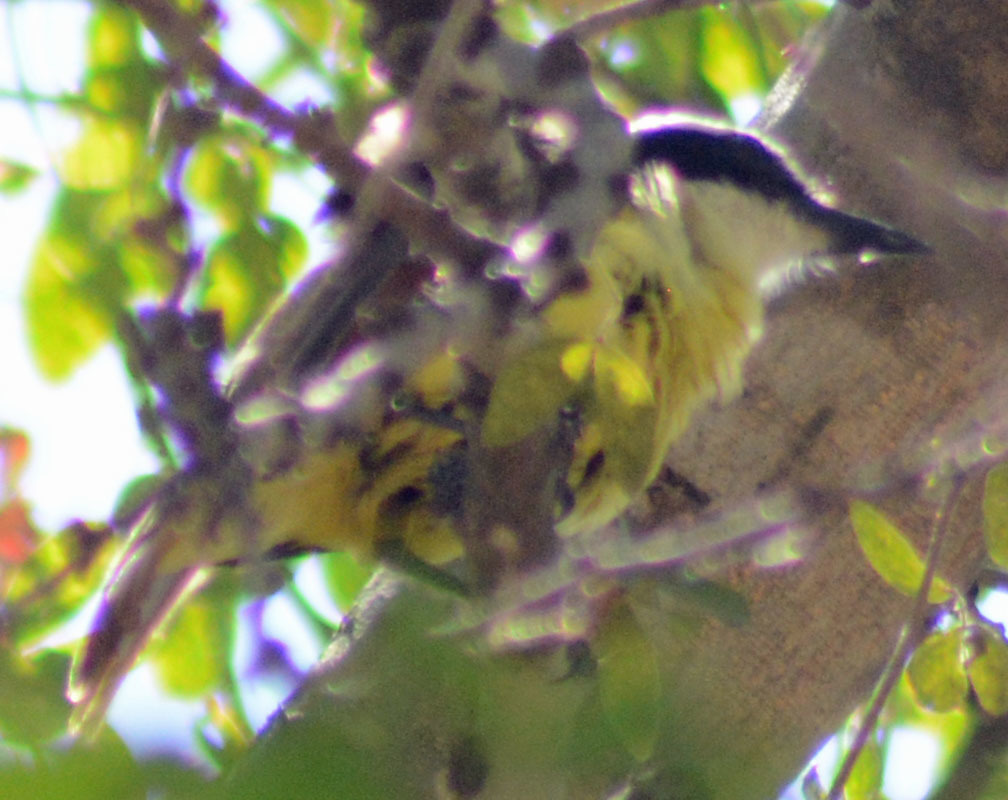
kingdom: Animalia
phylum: Chordata
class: Aves
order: Passeriformes
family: Tyrannidae
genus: Pitangus
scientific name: Pitangus sulphuratus
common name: Great kiskadee
